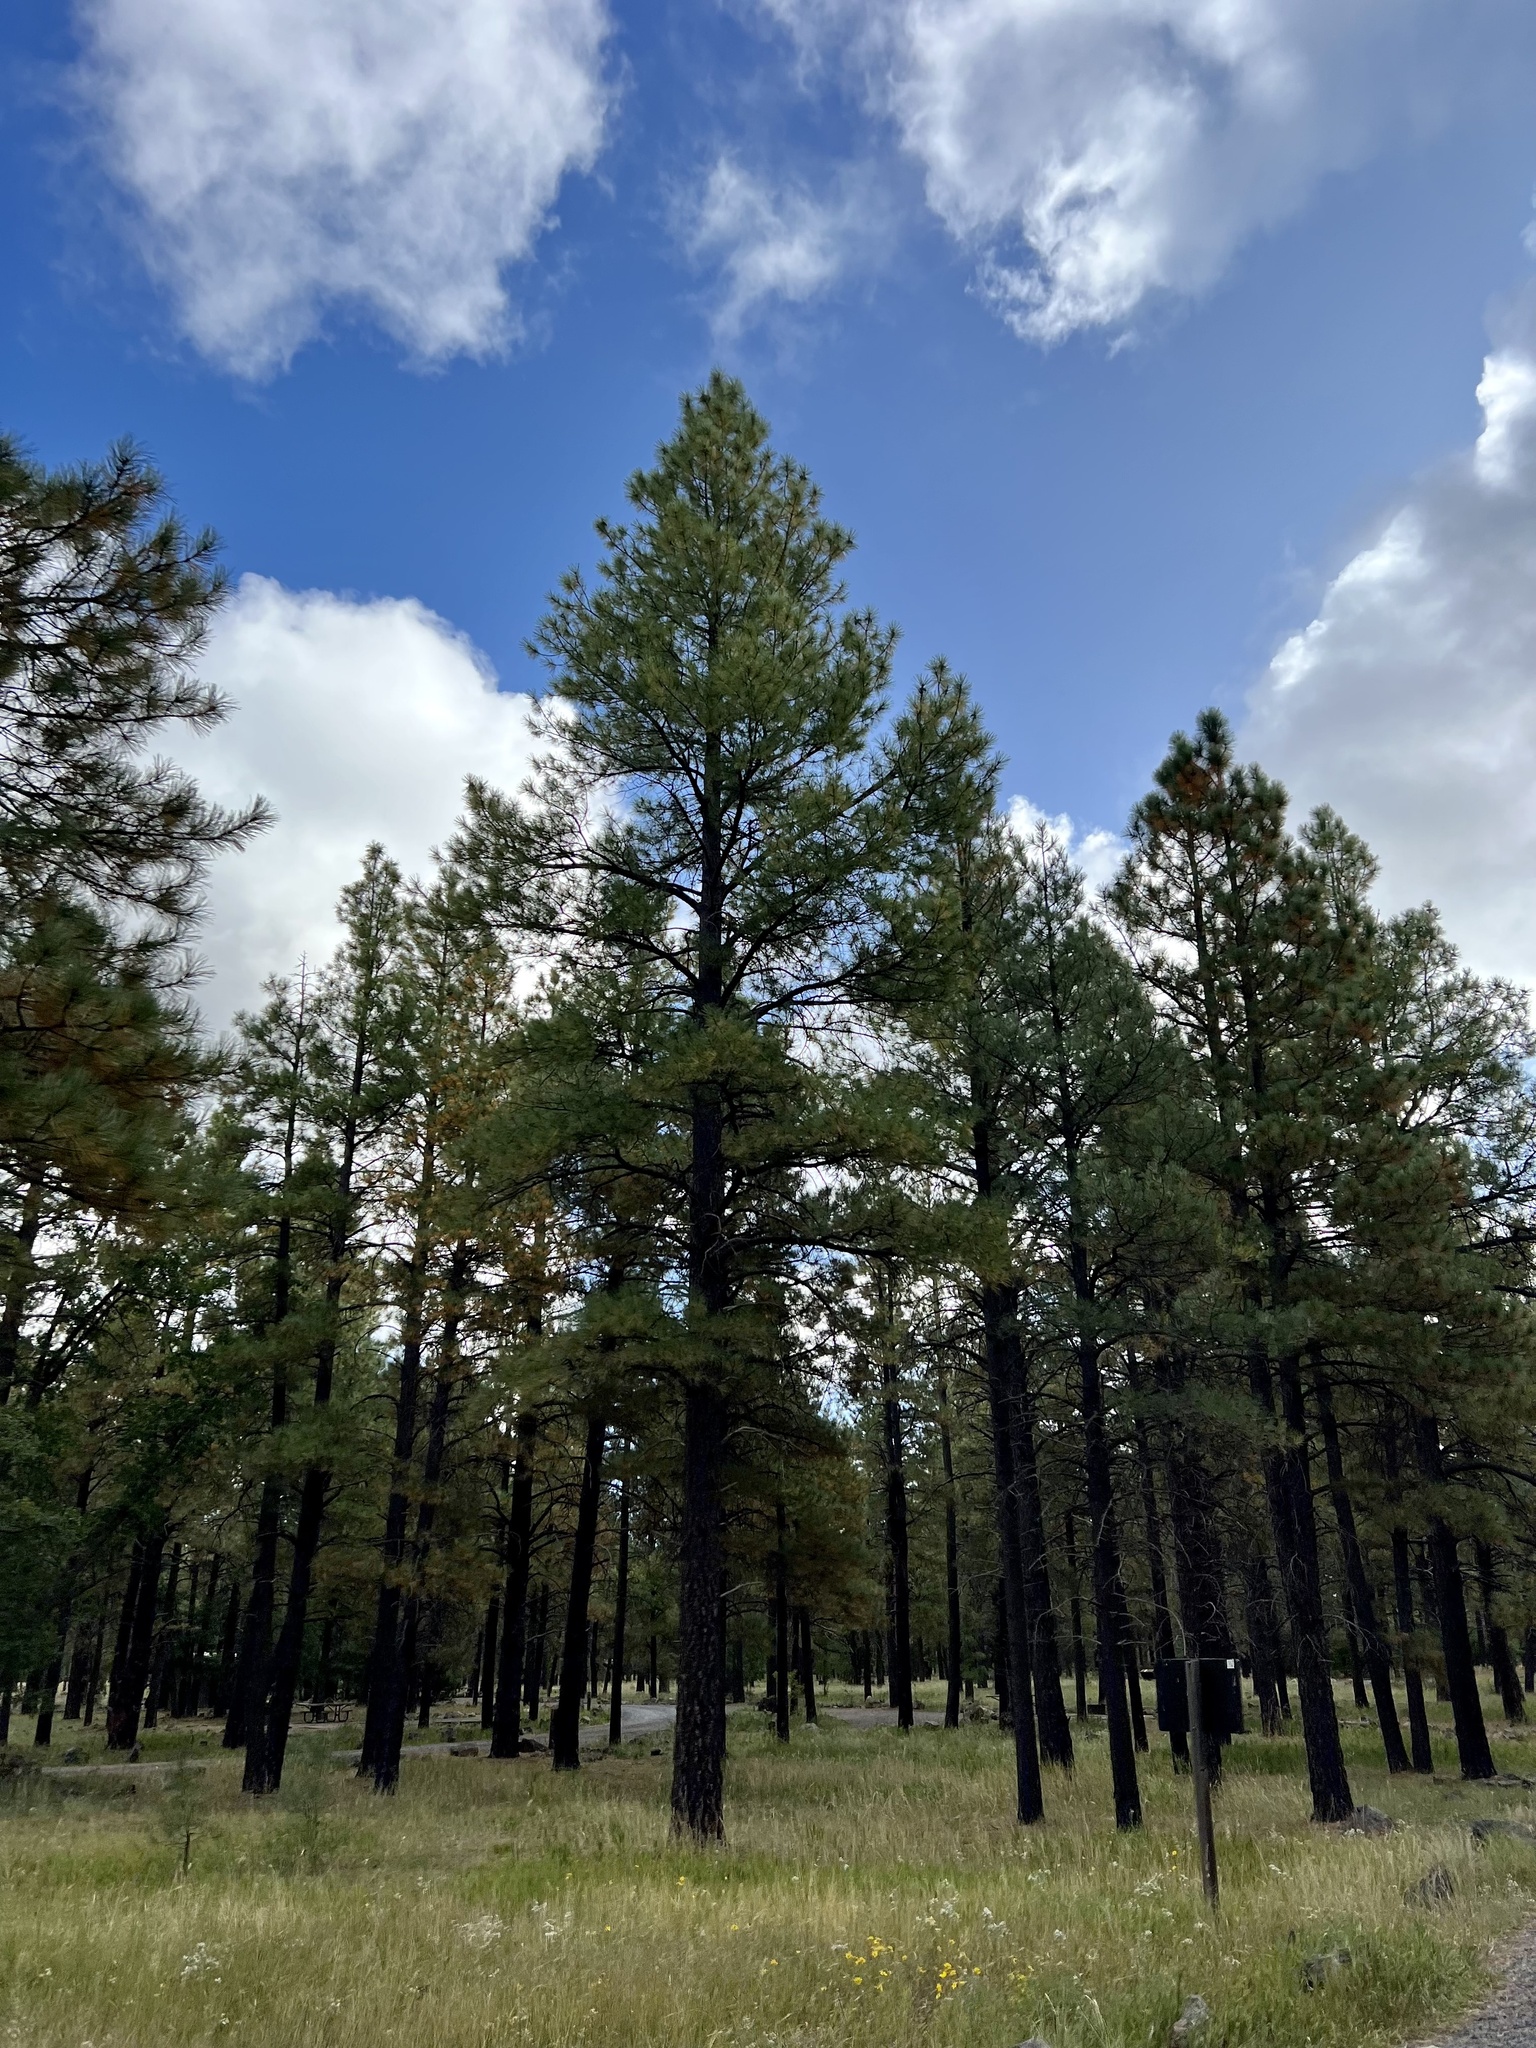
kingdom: Plantae
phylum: Tracheophyta
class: Pinopsida
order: Pinales
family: Pinaceae
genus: Pinus
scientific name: Pinus ponderosa
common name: Western yellow-pine
